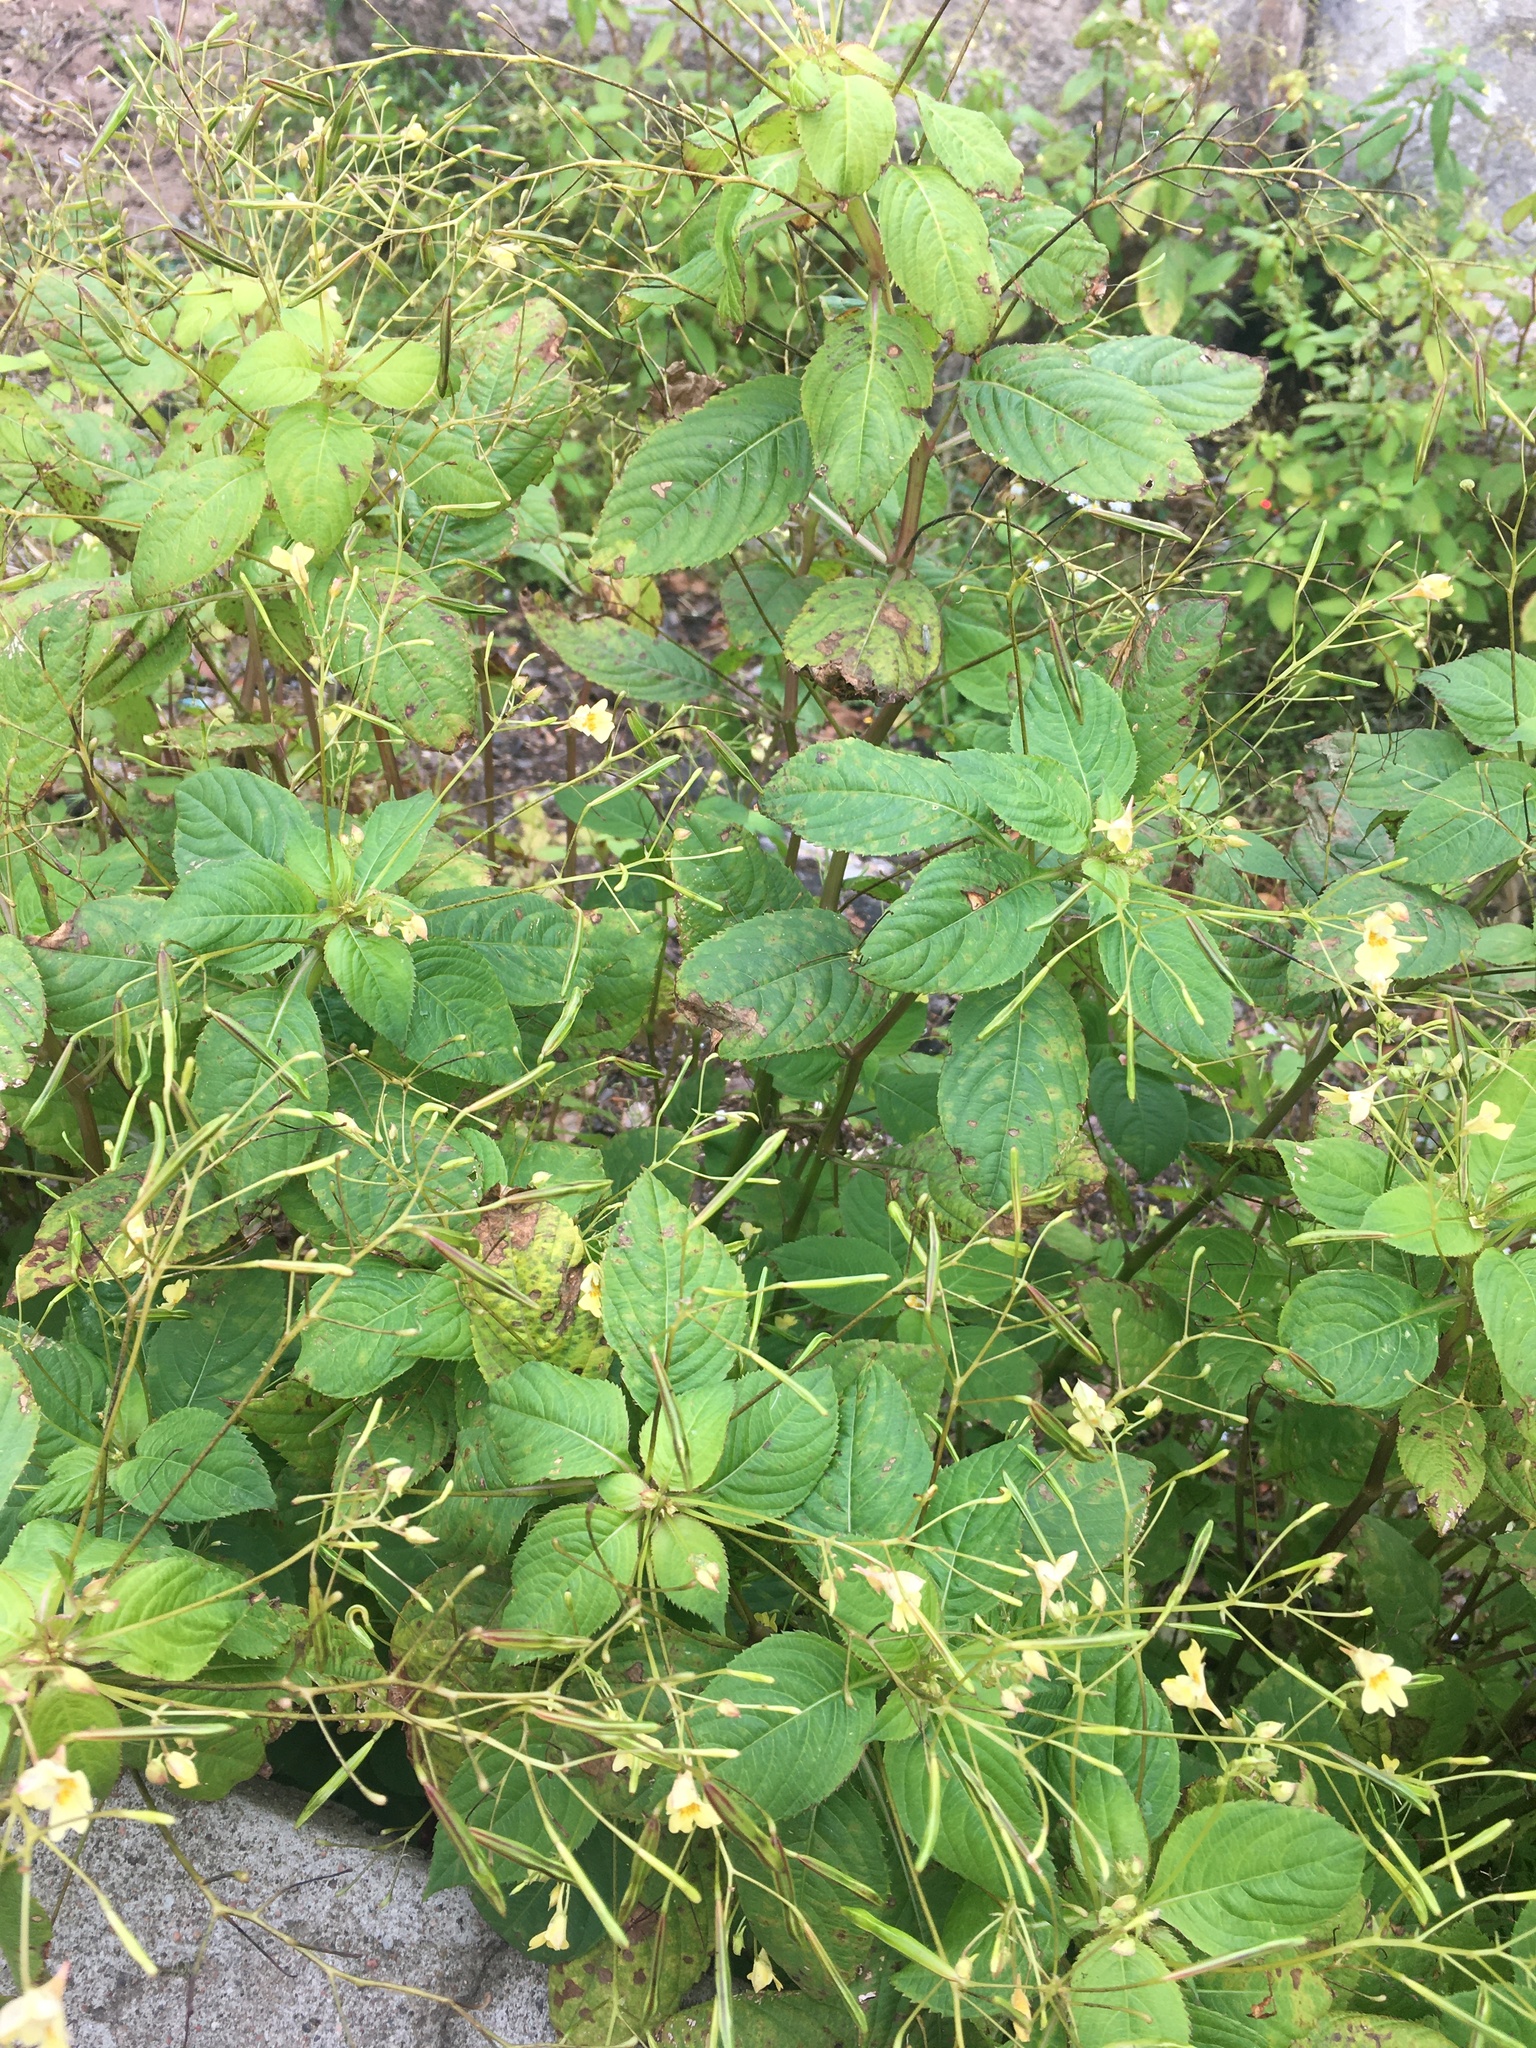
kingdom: Plantae
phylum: Tracheophyta
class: Magnoliopsida
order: Ericales
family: Balsaminaceae
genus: Impatiens
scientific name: Impatiens parviflora
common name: Small balsam
